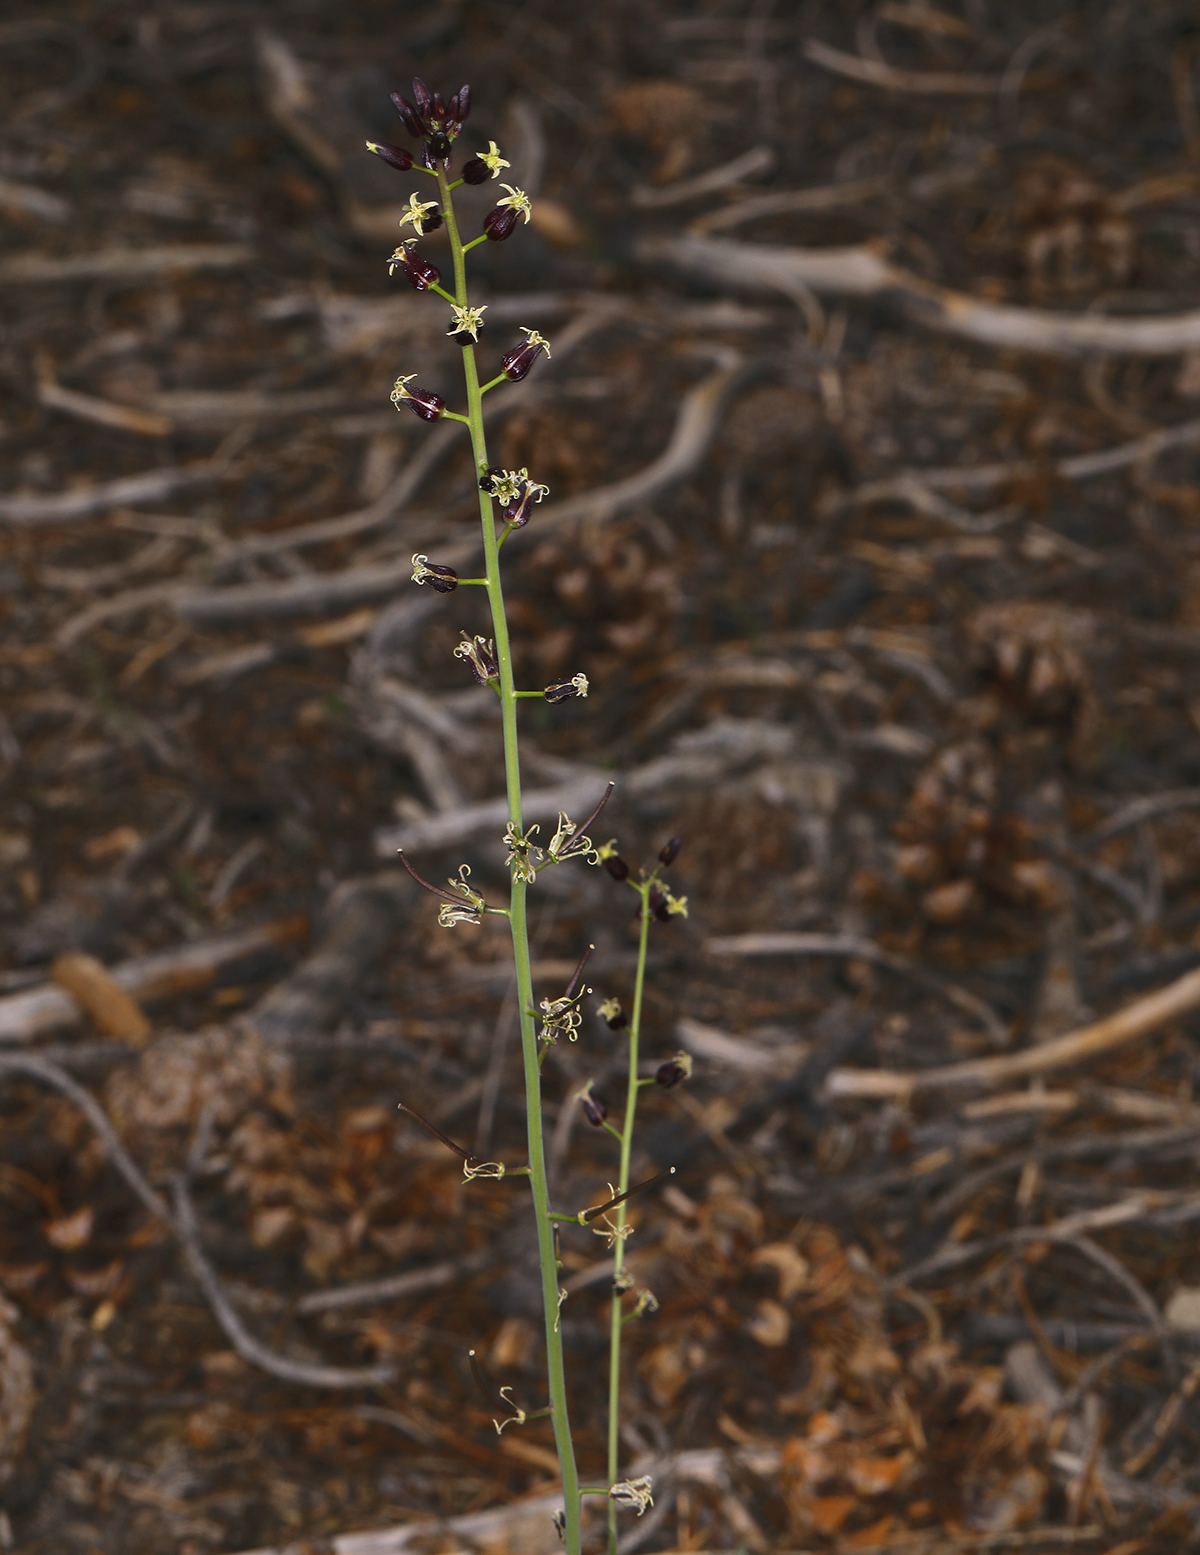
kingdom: Plantae
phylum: Tracheophyta
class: Magnoliopsida
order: Brassicales
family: Brassicaceae
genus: Streptanthus
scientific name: Streptanthus pilosus
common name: Chocolate drops
